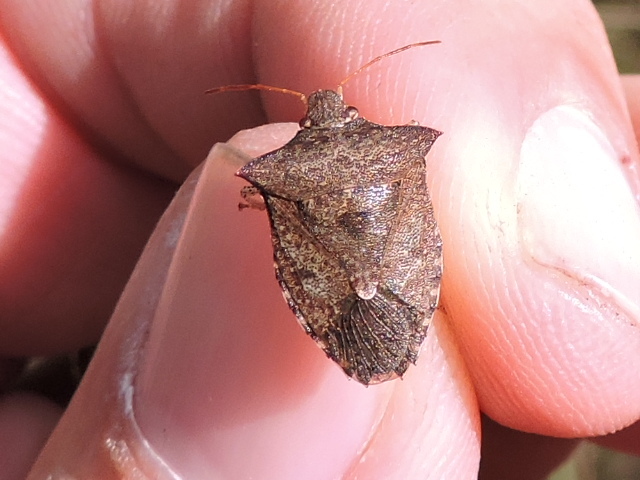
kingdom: Animalia
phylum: Arthropoda
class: Insecta
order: Hemiptera
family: Pentatomidae
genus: Euschistus
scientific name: Euschistus tristigmus
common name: Dusky stink bug
